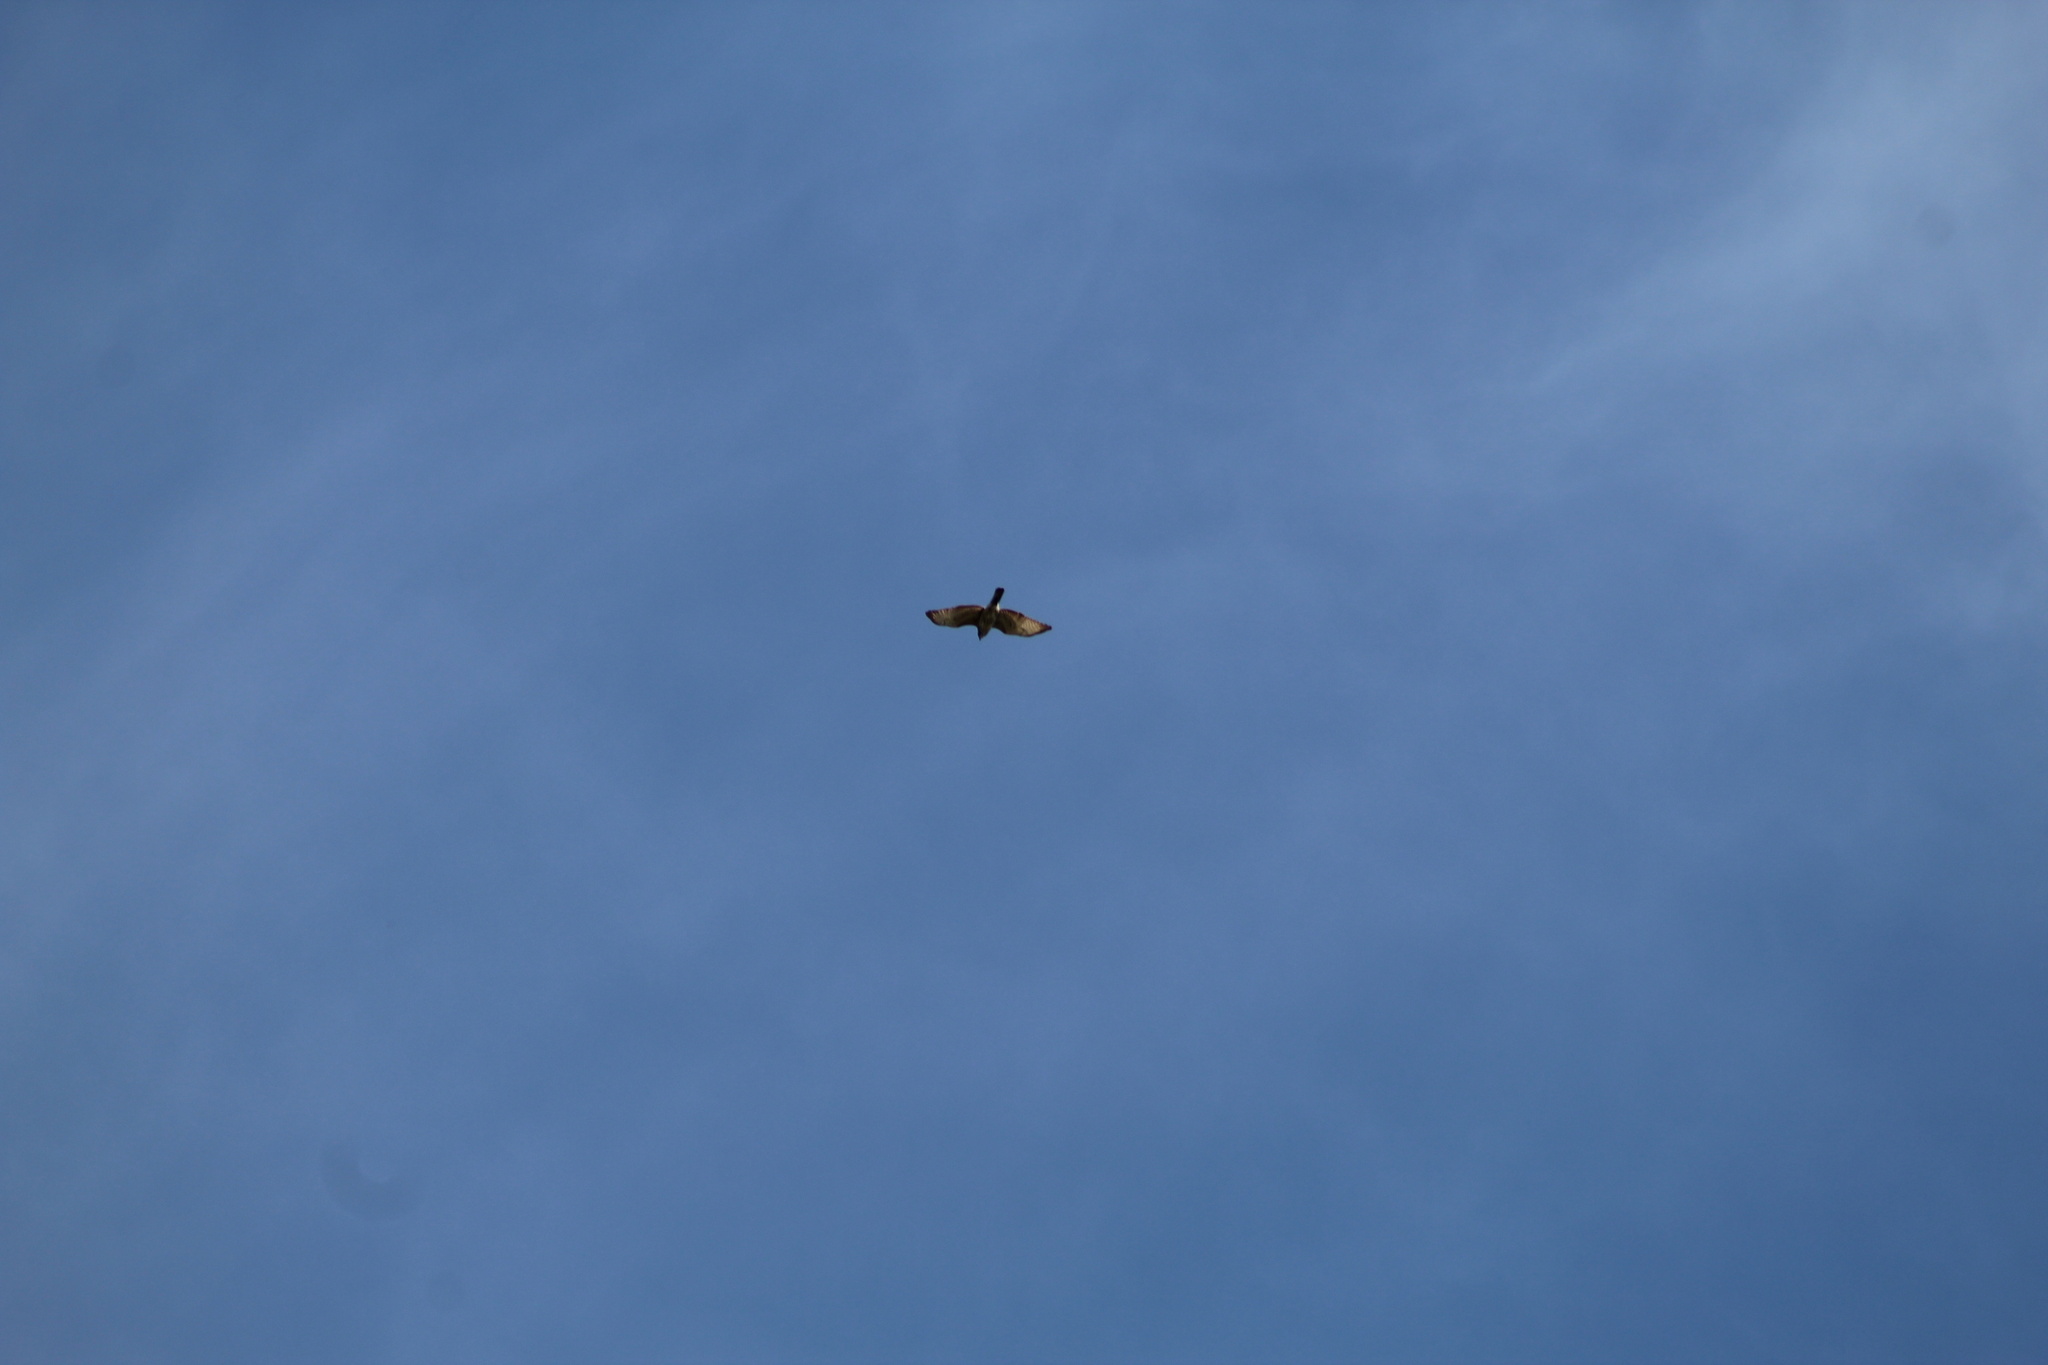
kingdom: Animalia
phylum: Chordata
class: Aves
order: Accipitriformes
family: Accipitridae
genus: Buteo
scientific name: Buteo platypterus
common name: Broad-winged hawk
